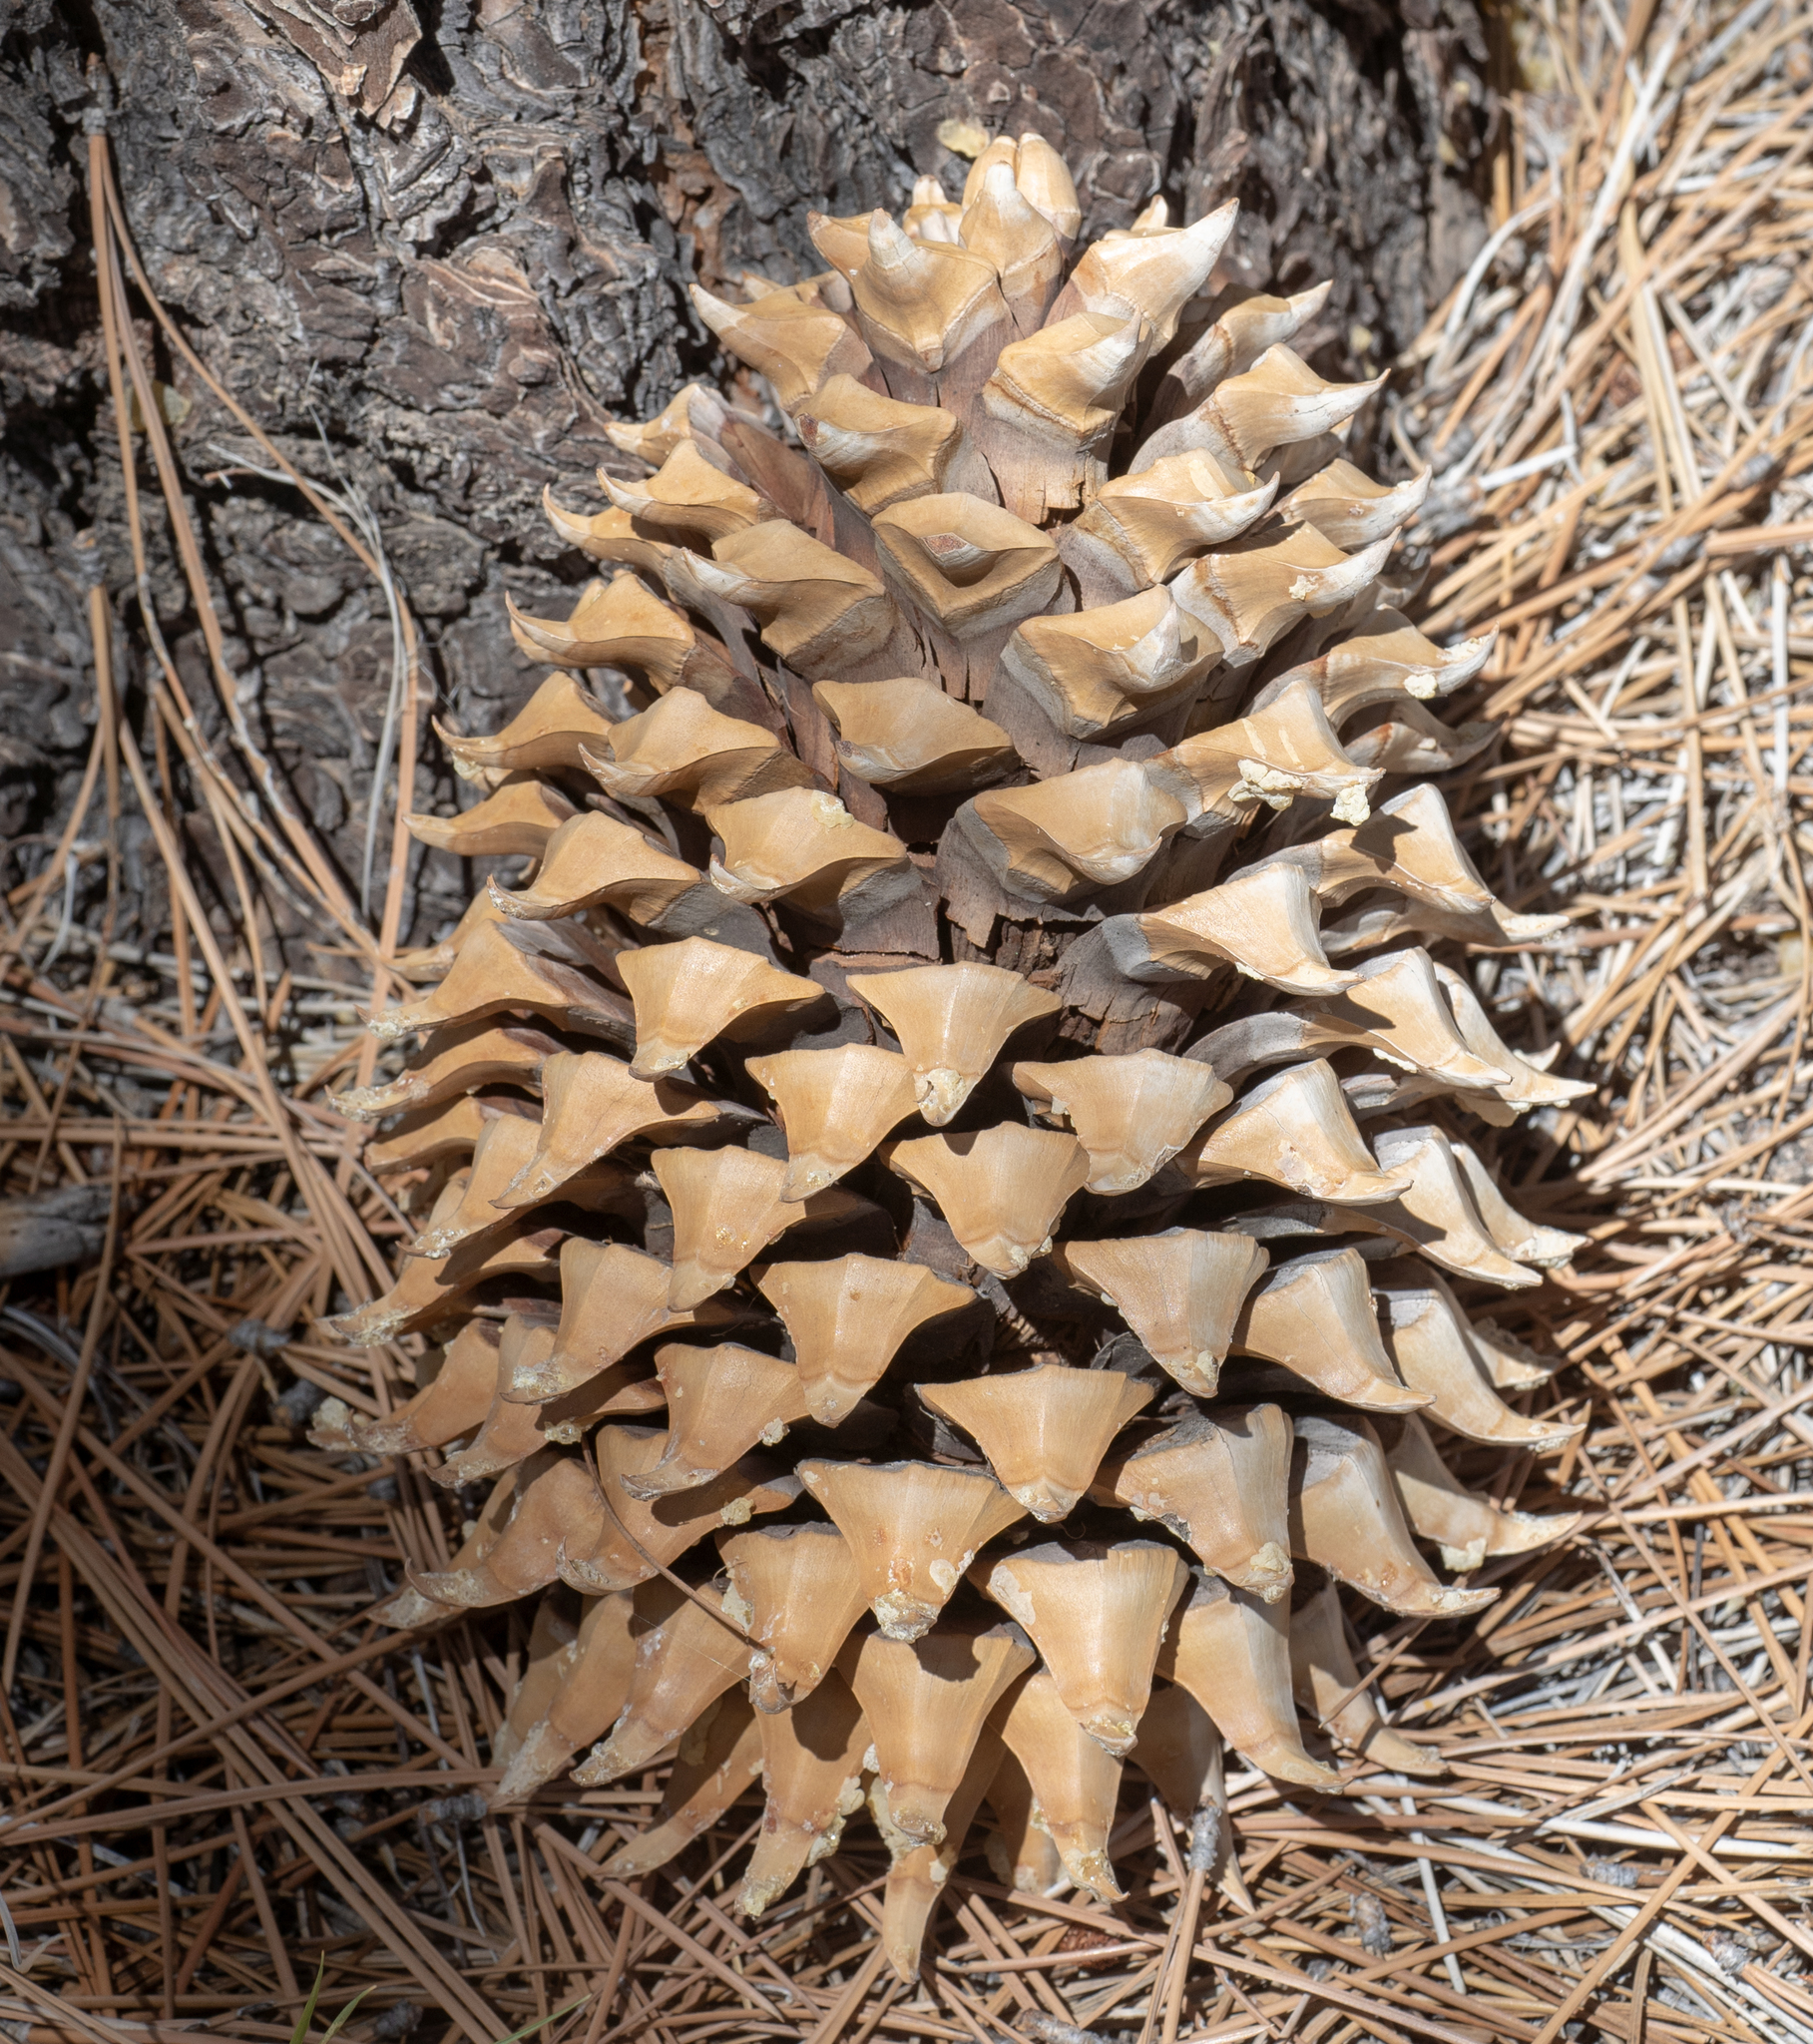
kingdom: Plantae
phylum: Tracheophyta
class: Pinopsida
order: Pinales
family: Pinaceae
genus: Pinus
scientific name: Pinus coulteri
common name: Coulter pine
